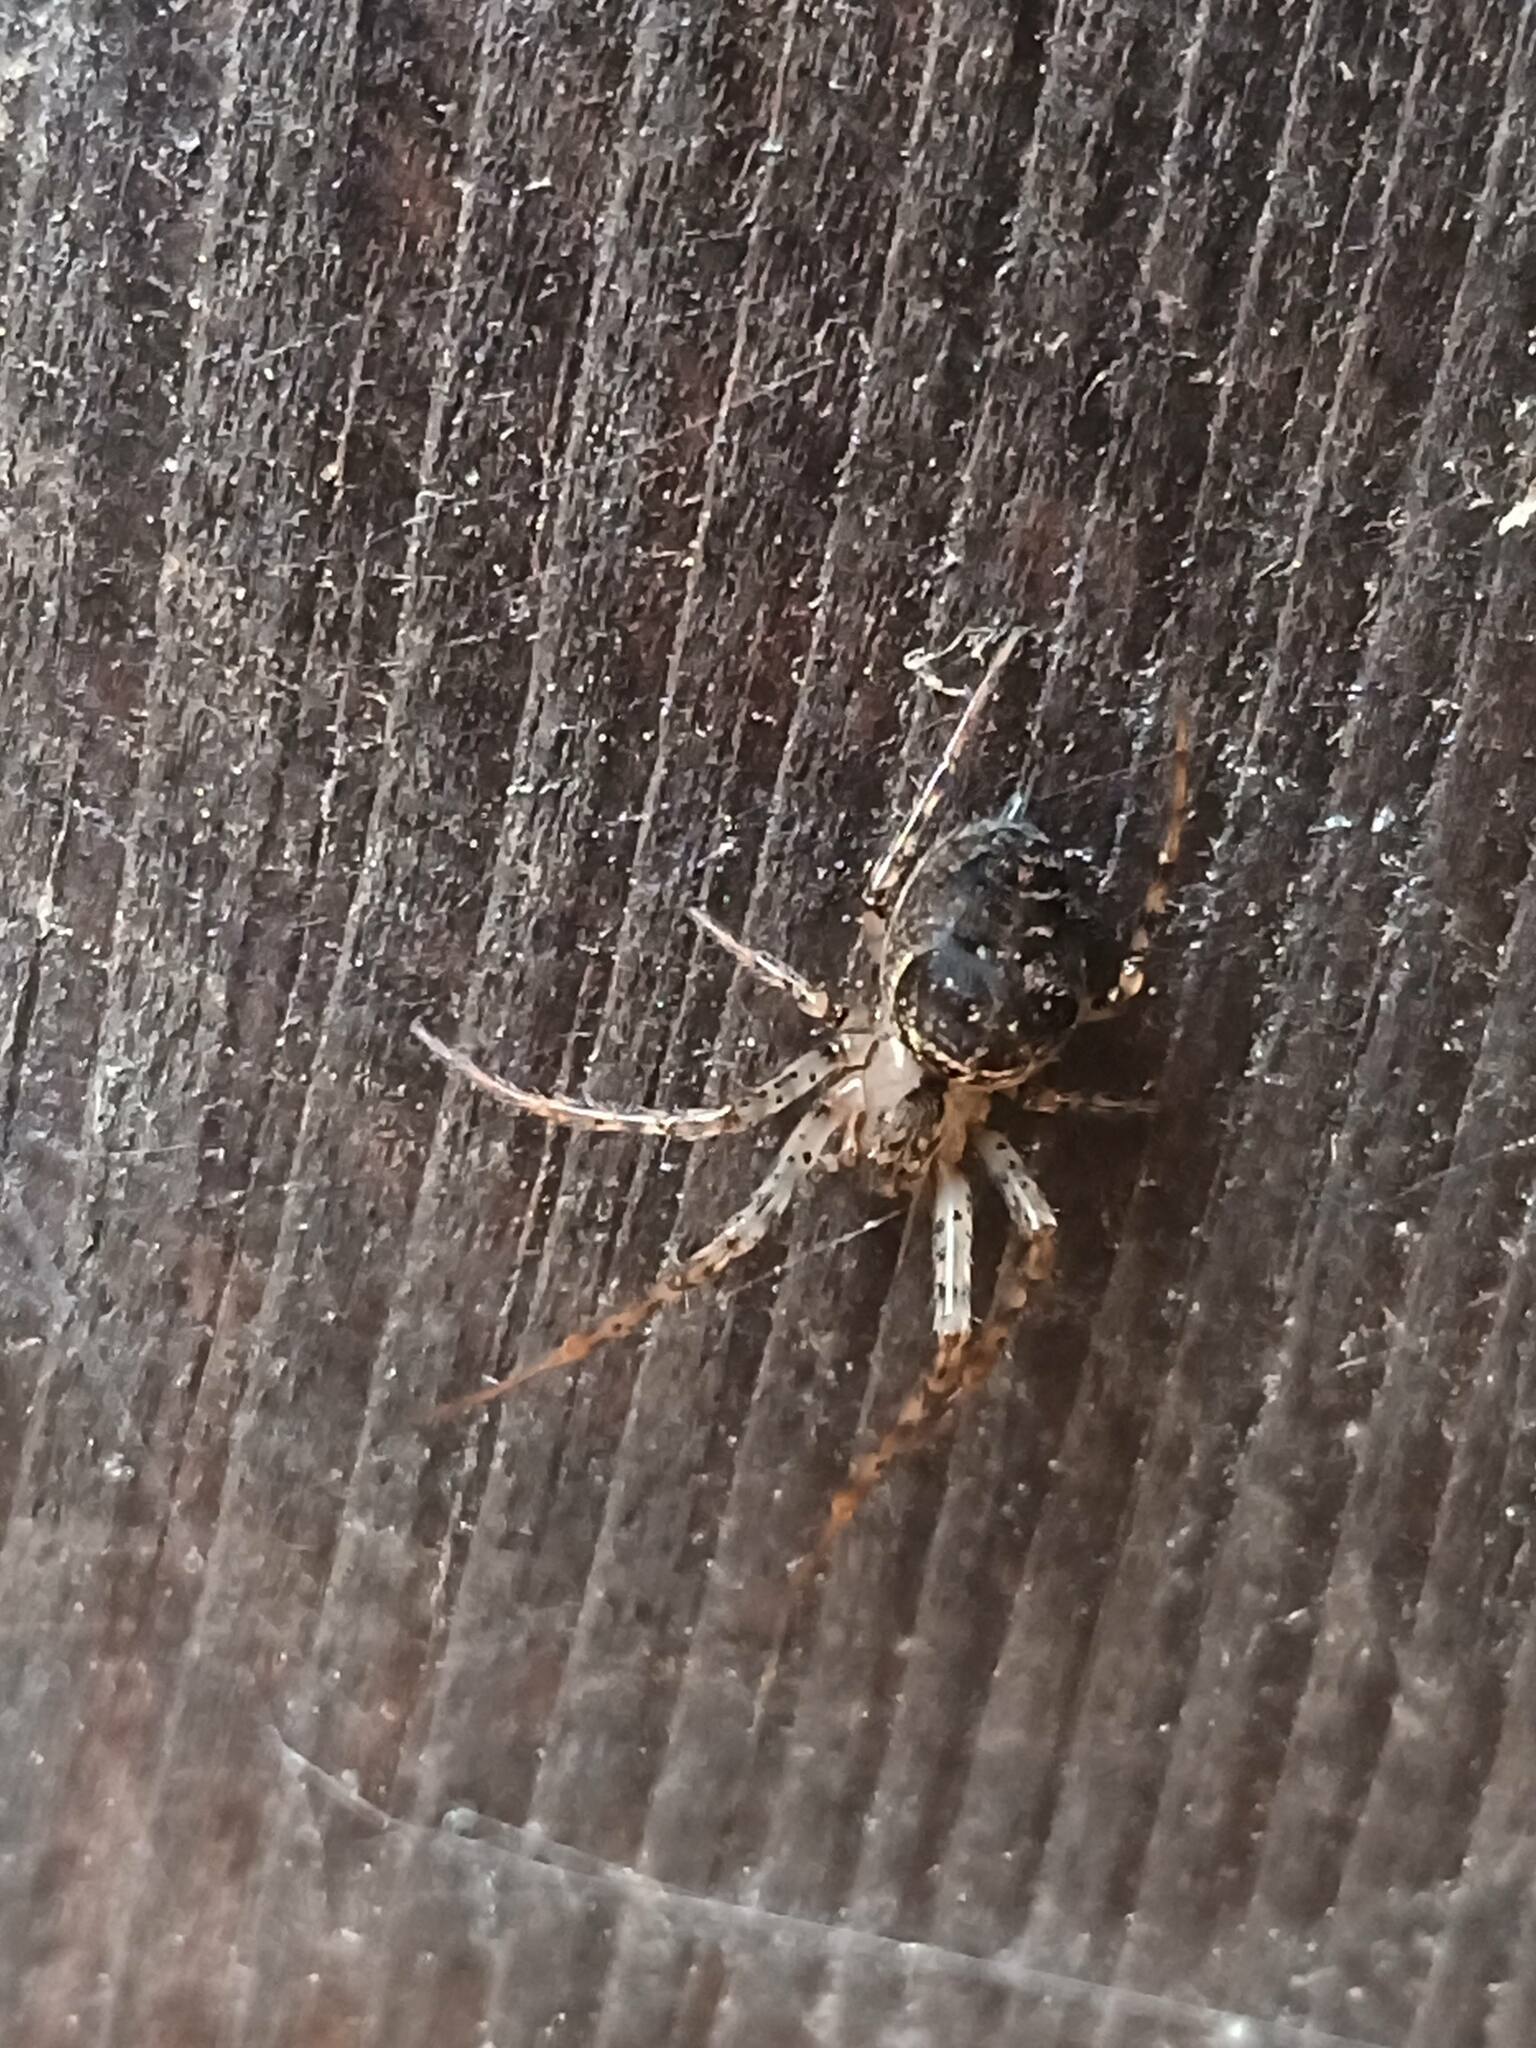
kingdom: Animalia
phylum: Arthropoda
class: Arachnida
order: Araneae
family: Tetragnathidae
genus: Metellina
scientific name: Metellina merianae
